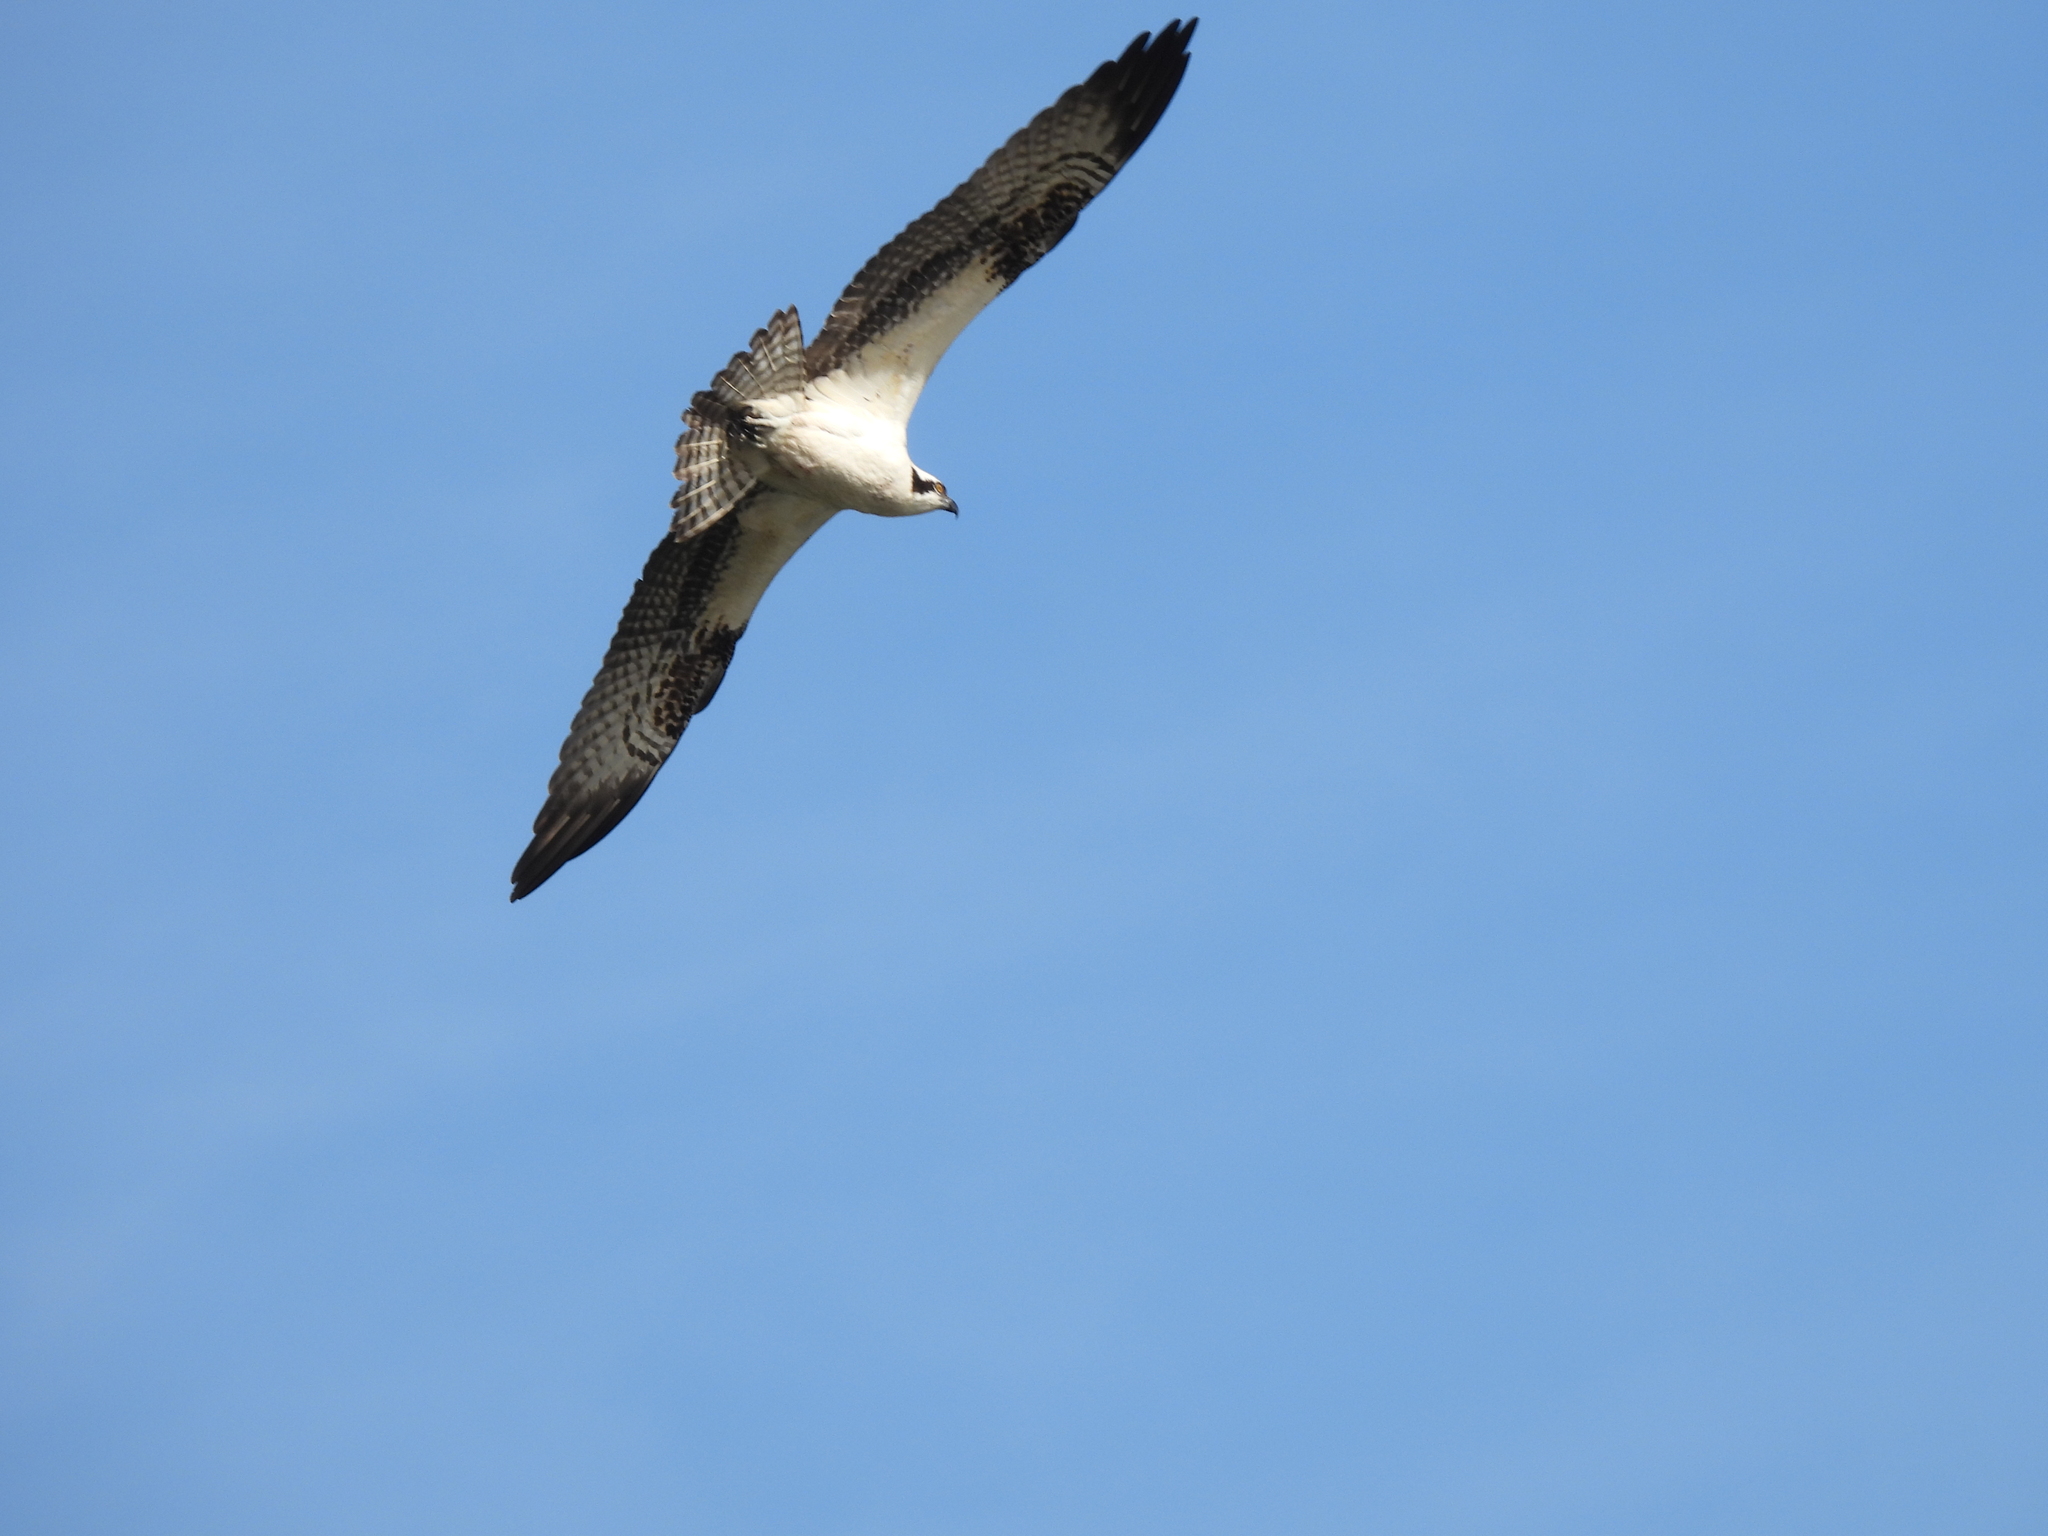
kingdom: Animalia
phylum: Chordata
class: Aves
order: Accipitriformes
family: Pandionidae
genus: Pandion
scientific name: Pandion haliaetus
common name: Osprey
